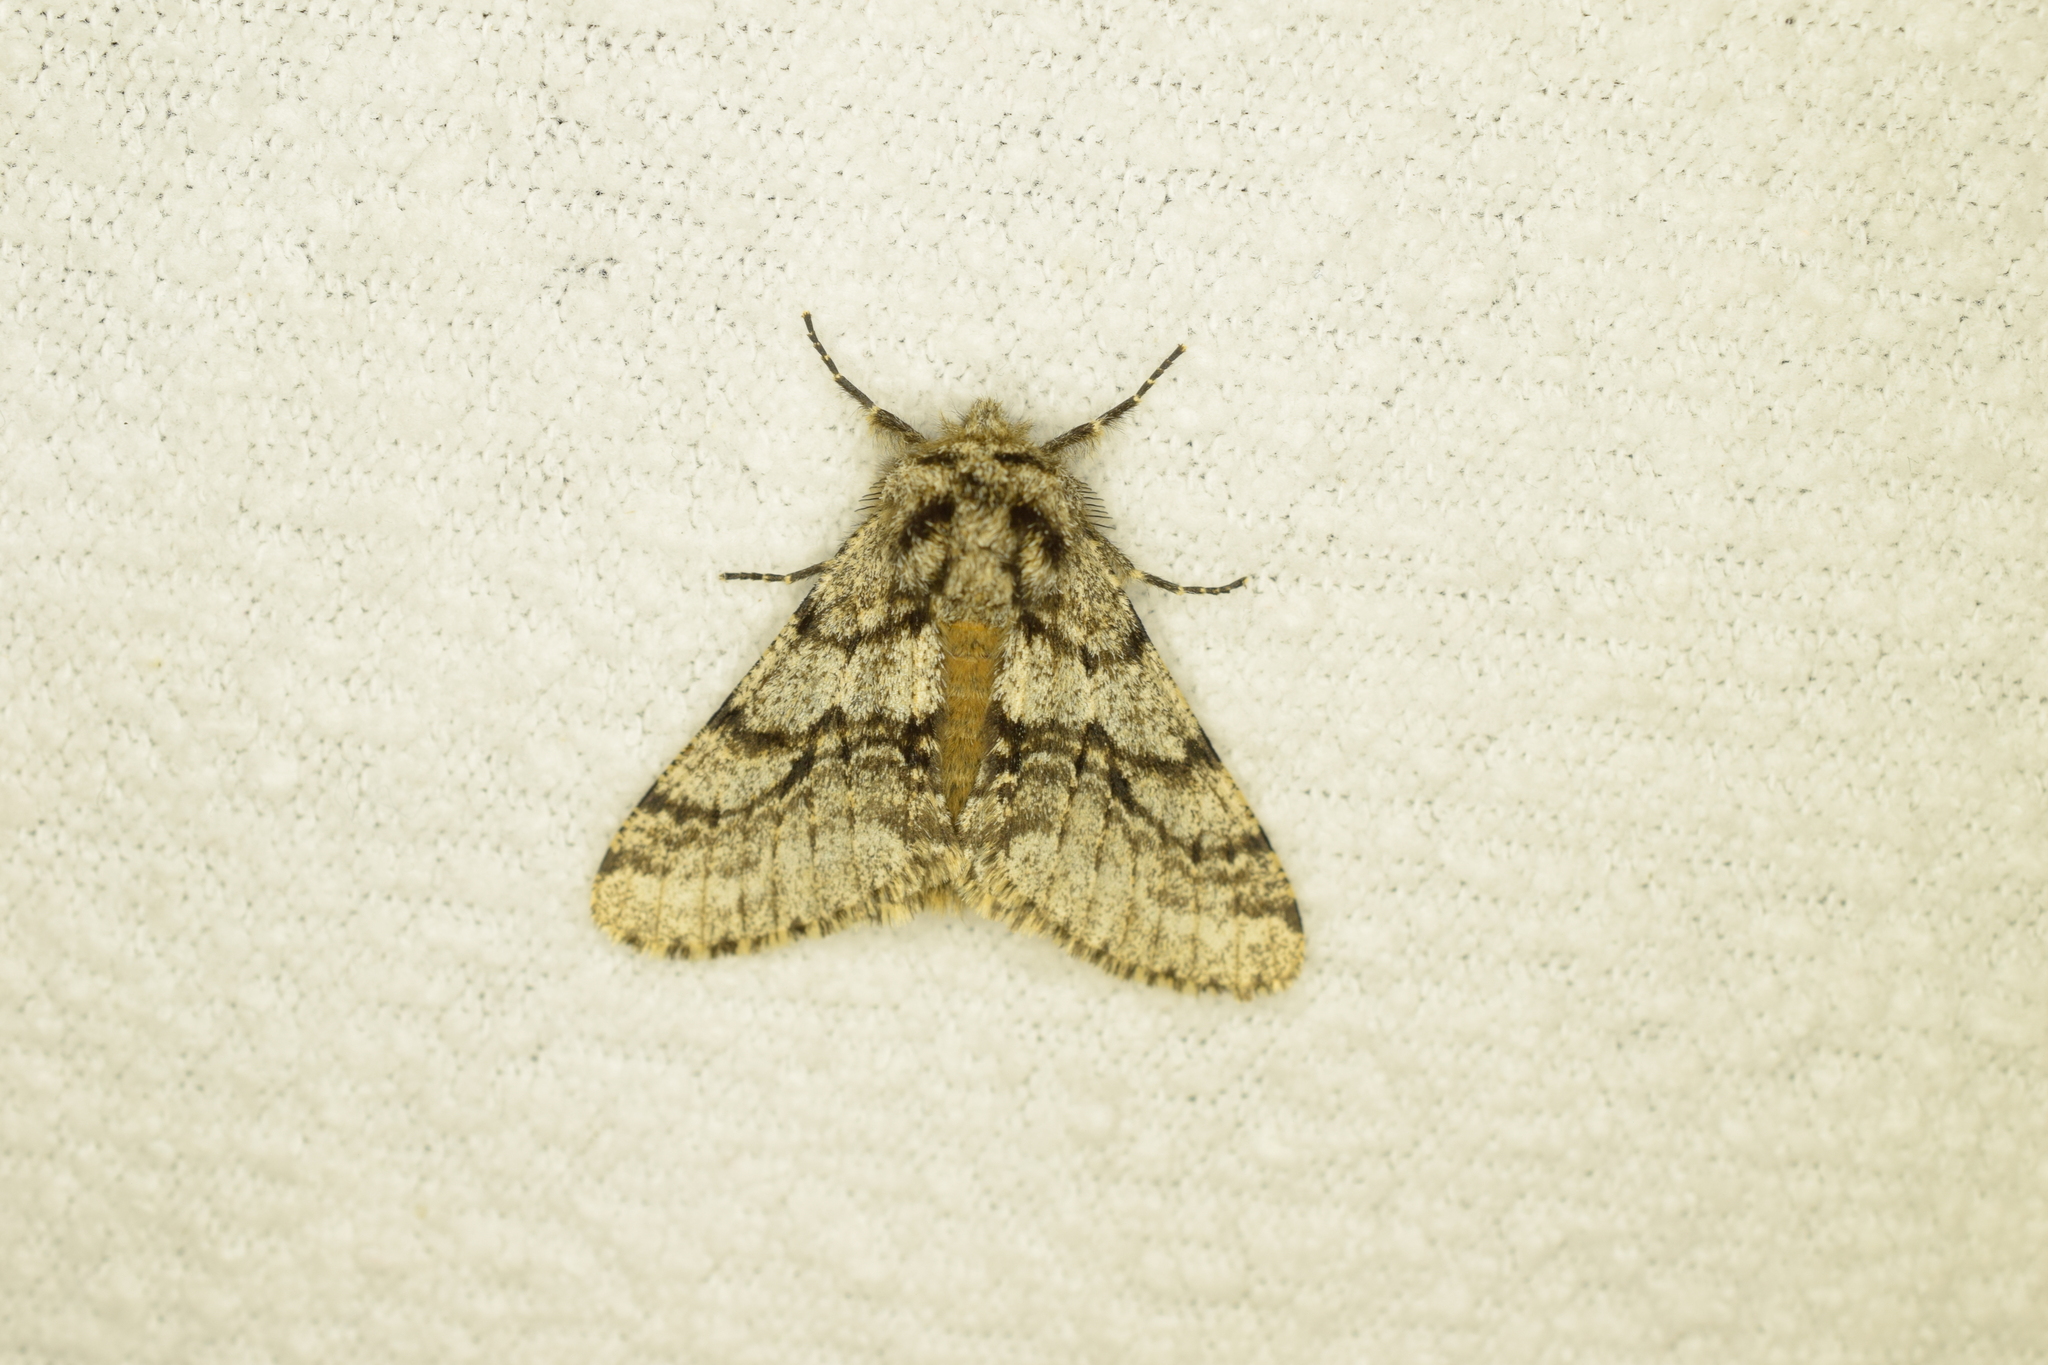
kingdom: Animalia
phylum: Arthropoda
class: Insecta
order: Lepidoptera
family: Geometridae
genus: Lycia
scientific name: Lycia hirtaria
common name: Brindled beauty
